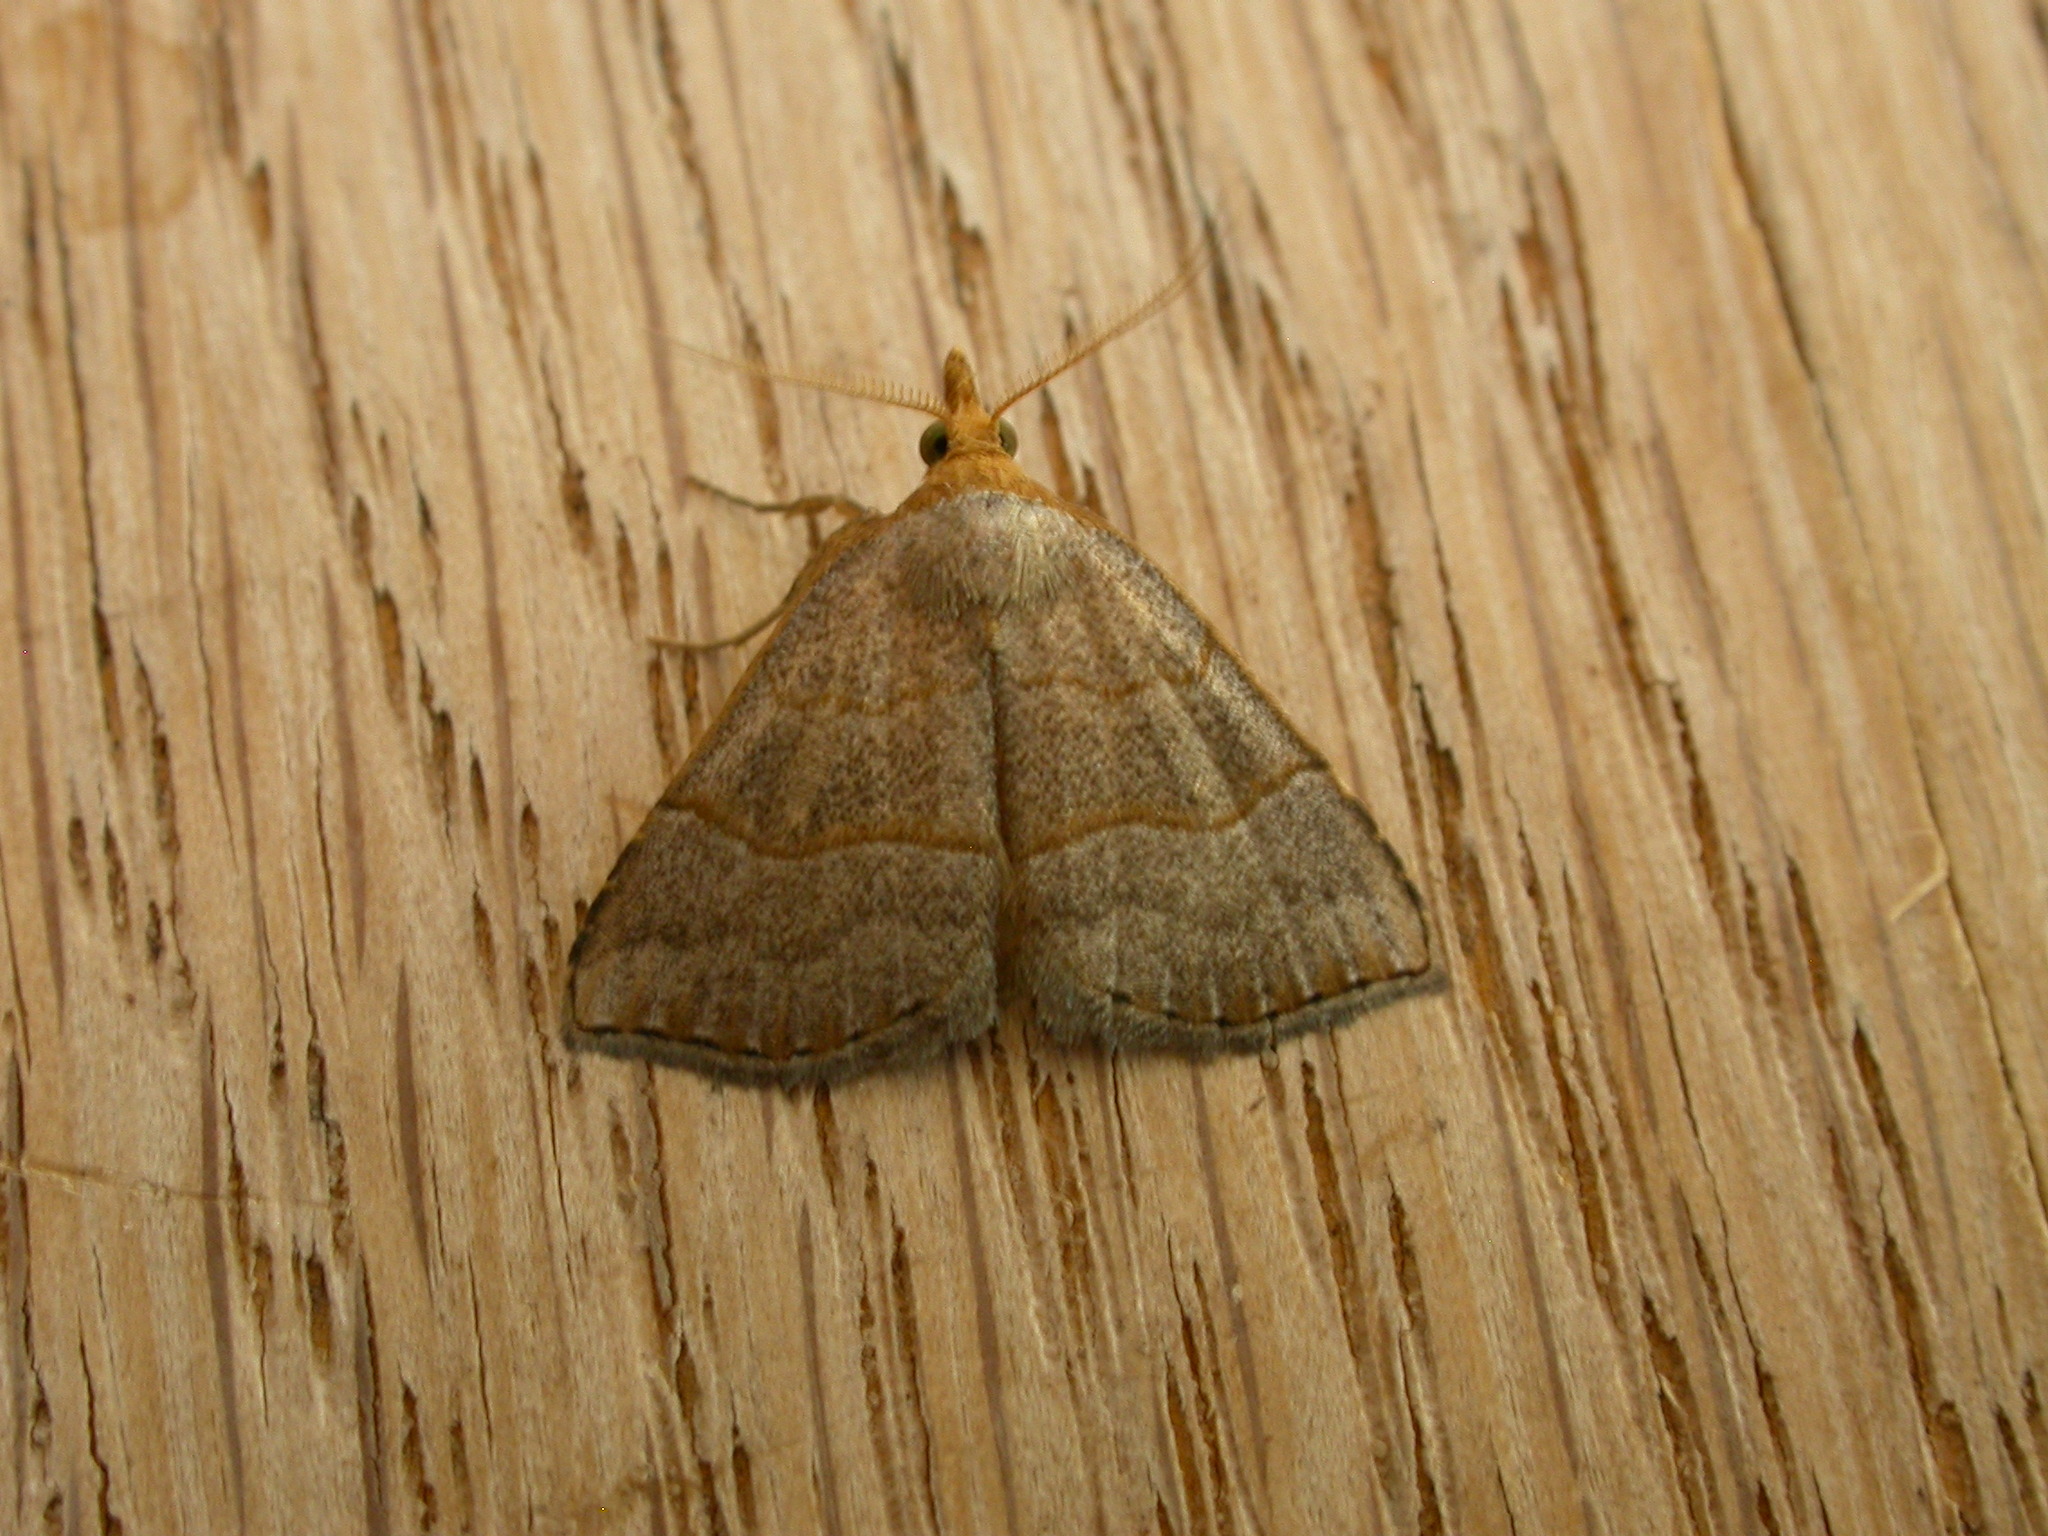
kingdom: Animalia
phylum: Arthropoda
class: Insecta
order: Lepidoptera
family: Erebidae
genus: Meranda
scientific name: Meranda susialis
